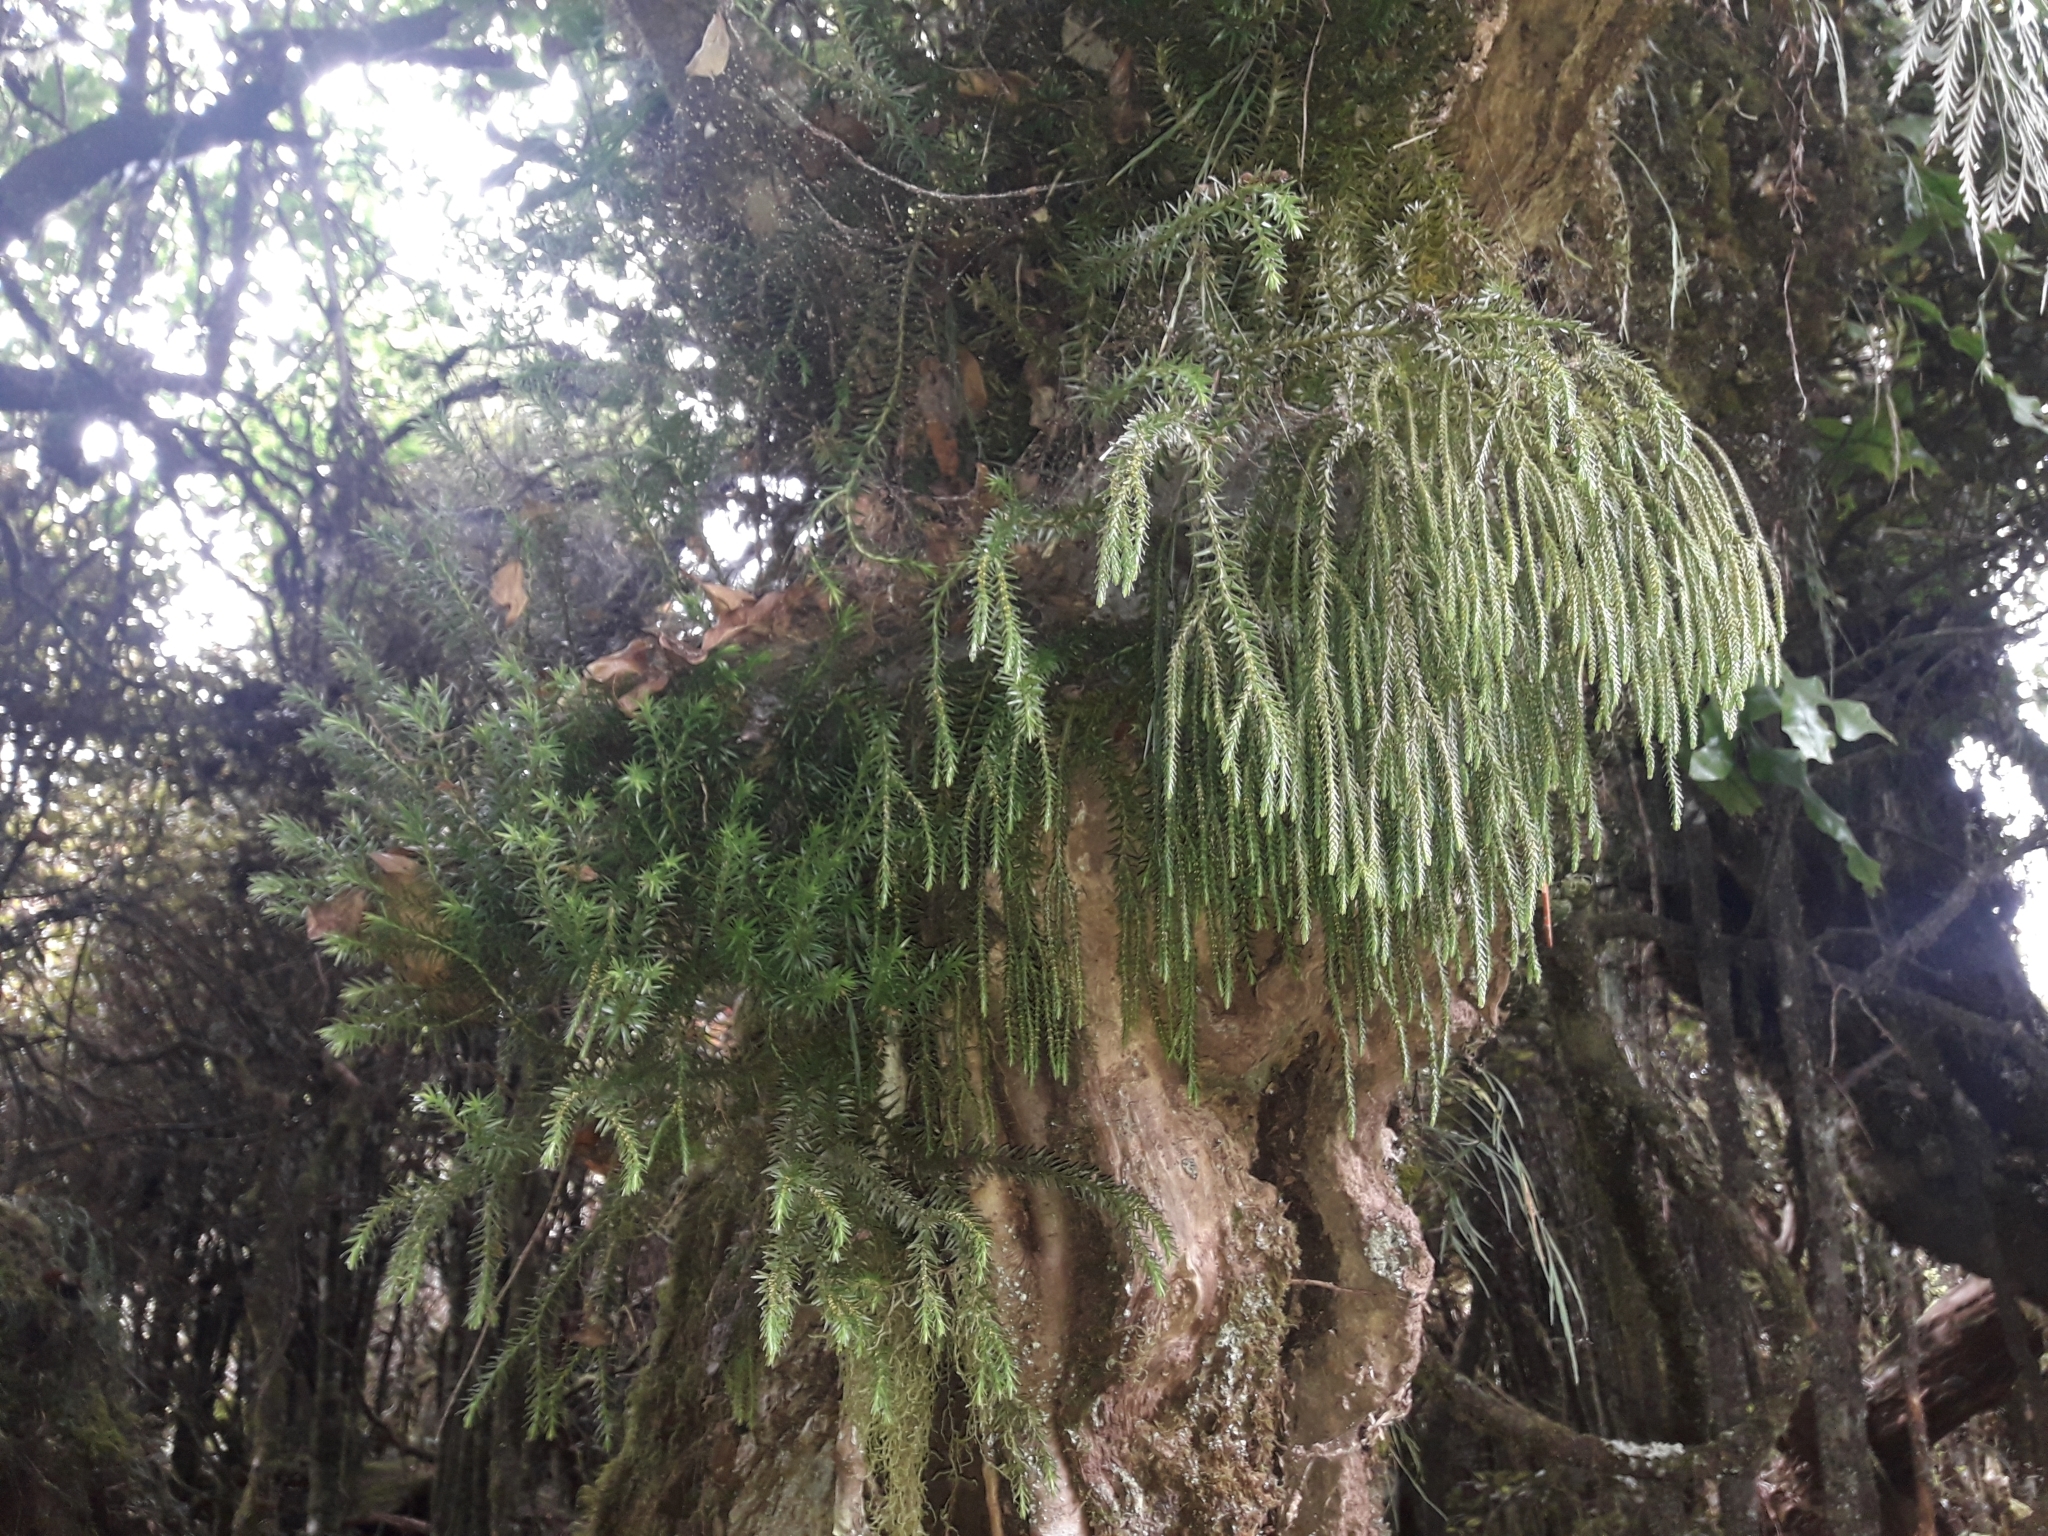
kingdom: Plantae
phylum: Tracheophyta
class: Lycopodiopsida
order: Lycopodiales
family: Lycopodiaceae
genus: Phlegmariurus
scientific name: Phlegmariurus varius
